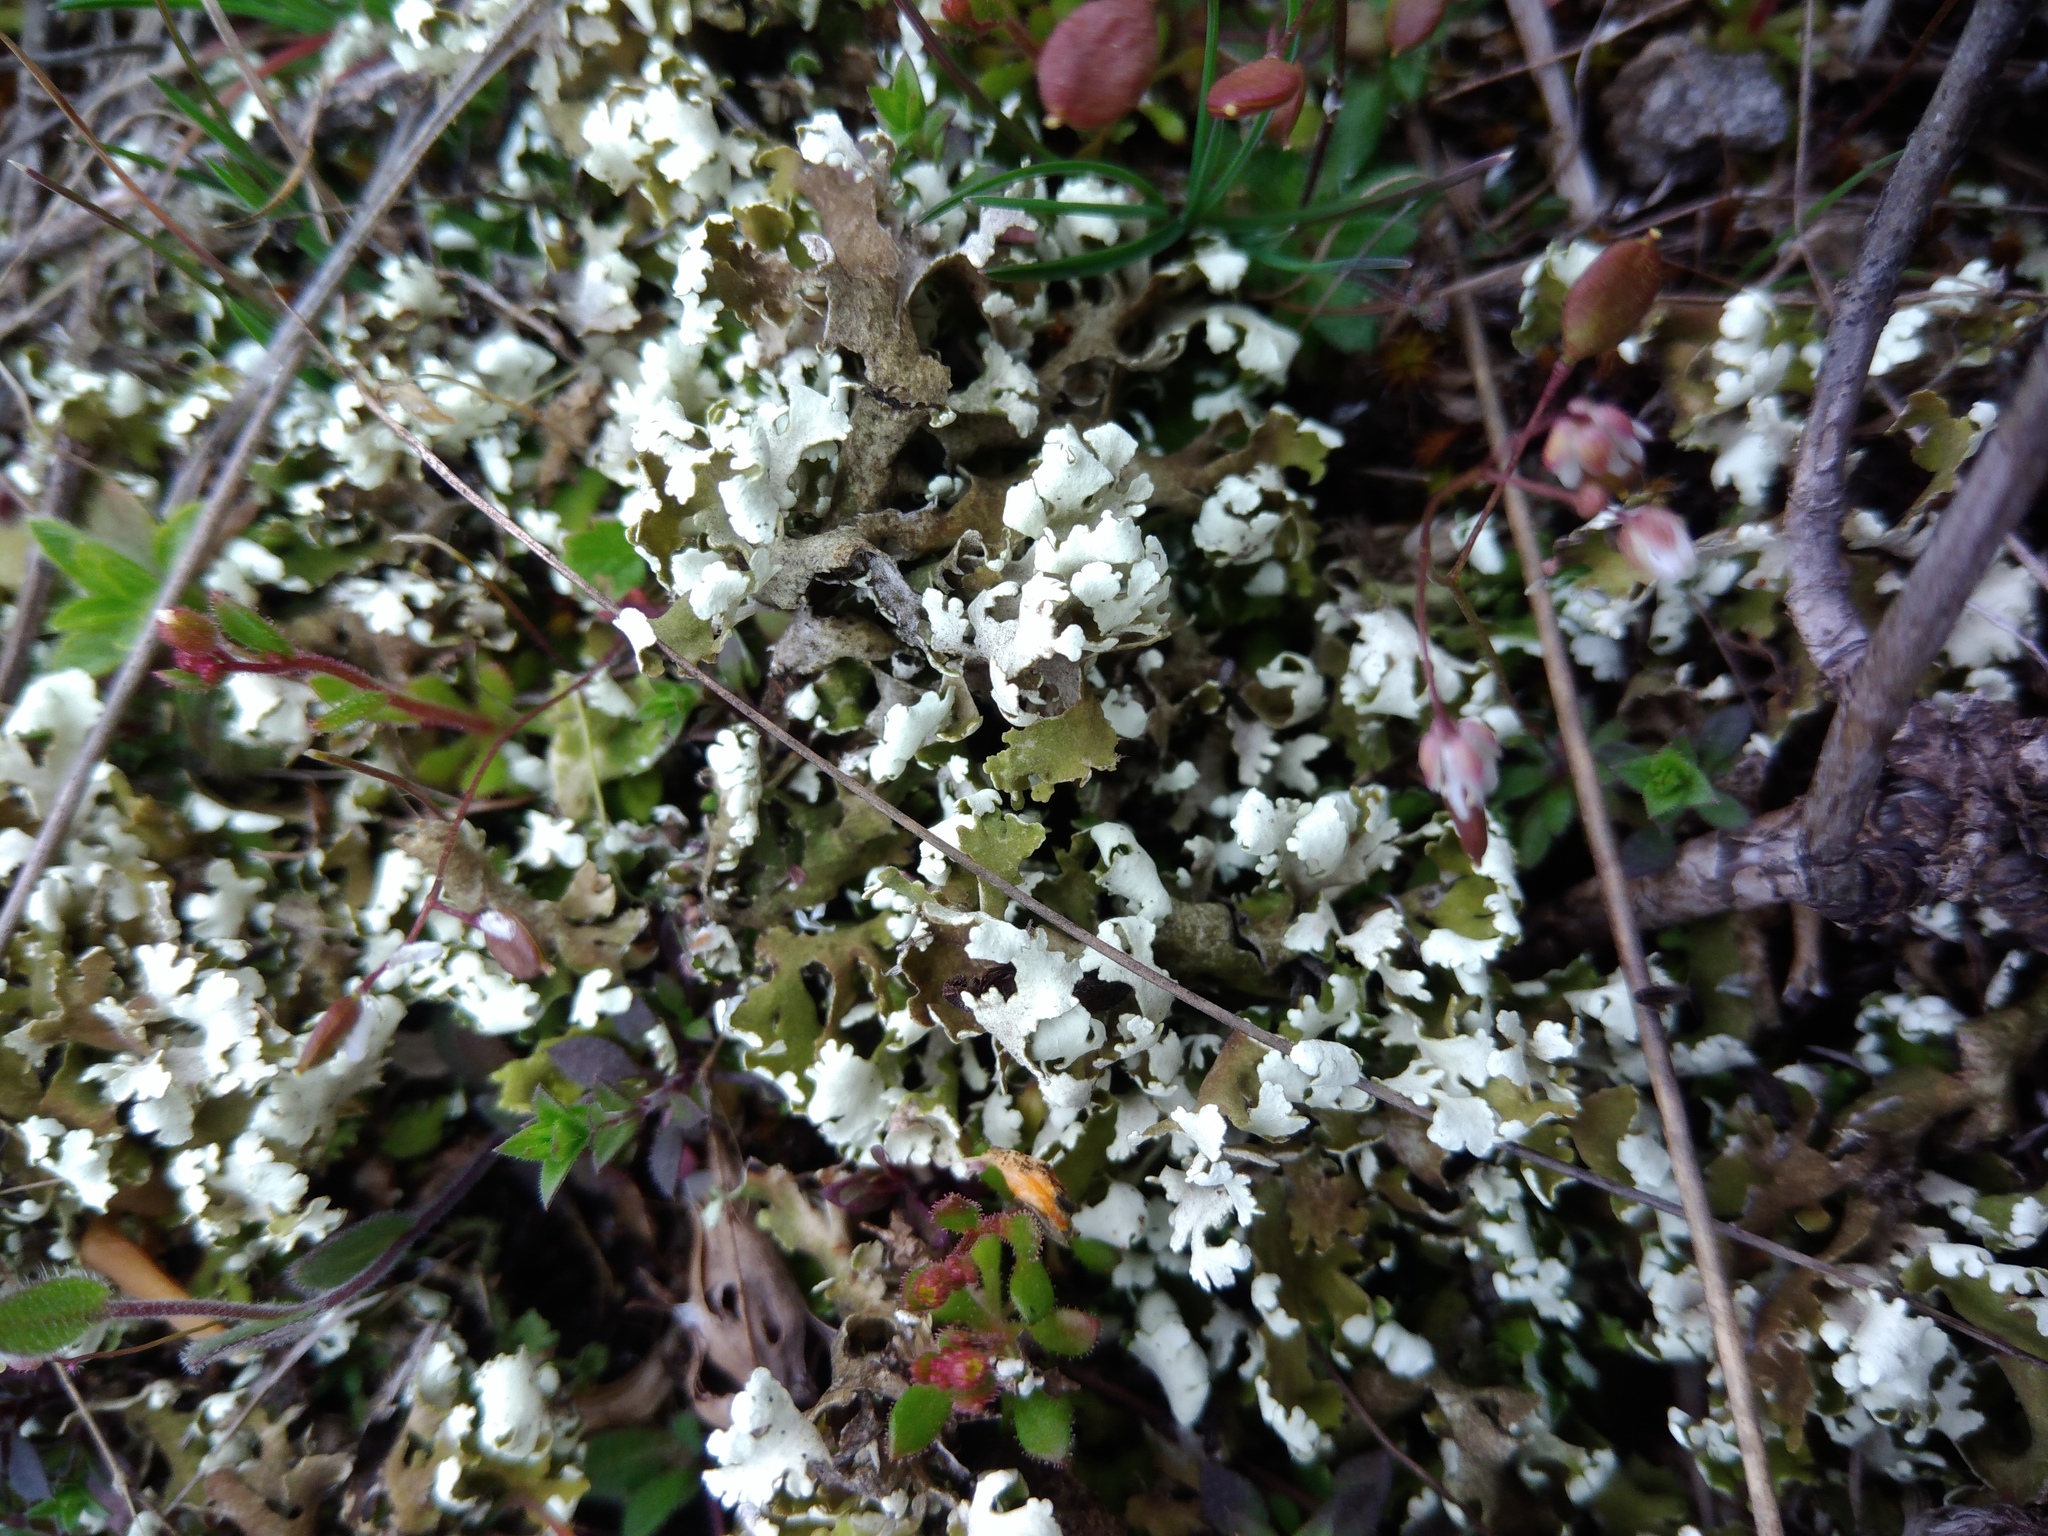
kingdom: Fungi
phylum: Ascomycota
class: Lecanoromycetes
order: Lecanorales
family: Cladoniaceae
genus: Cladonia
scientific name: Cladonia foliacea
